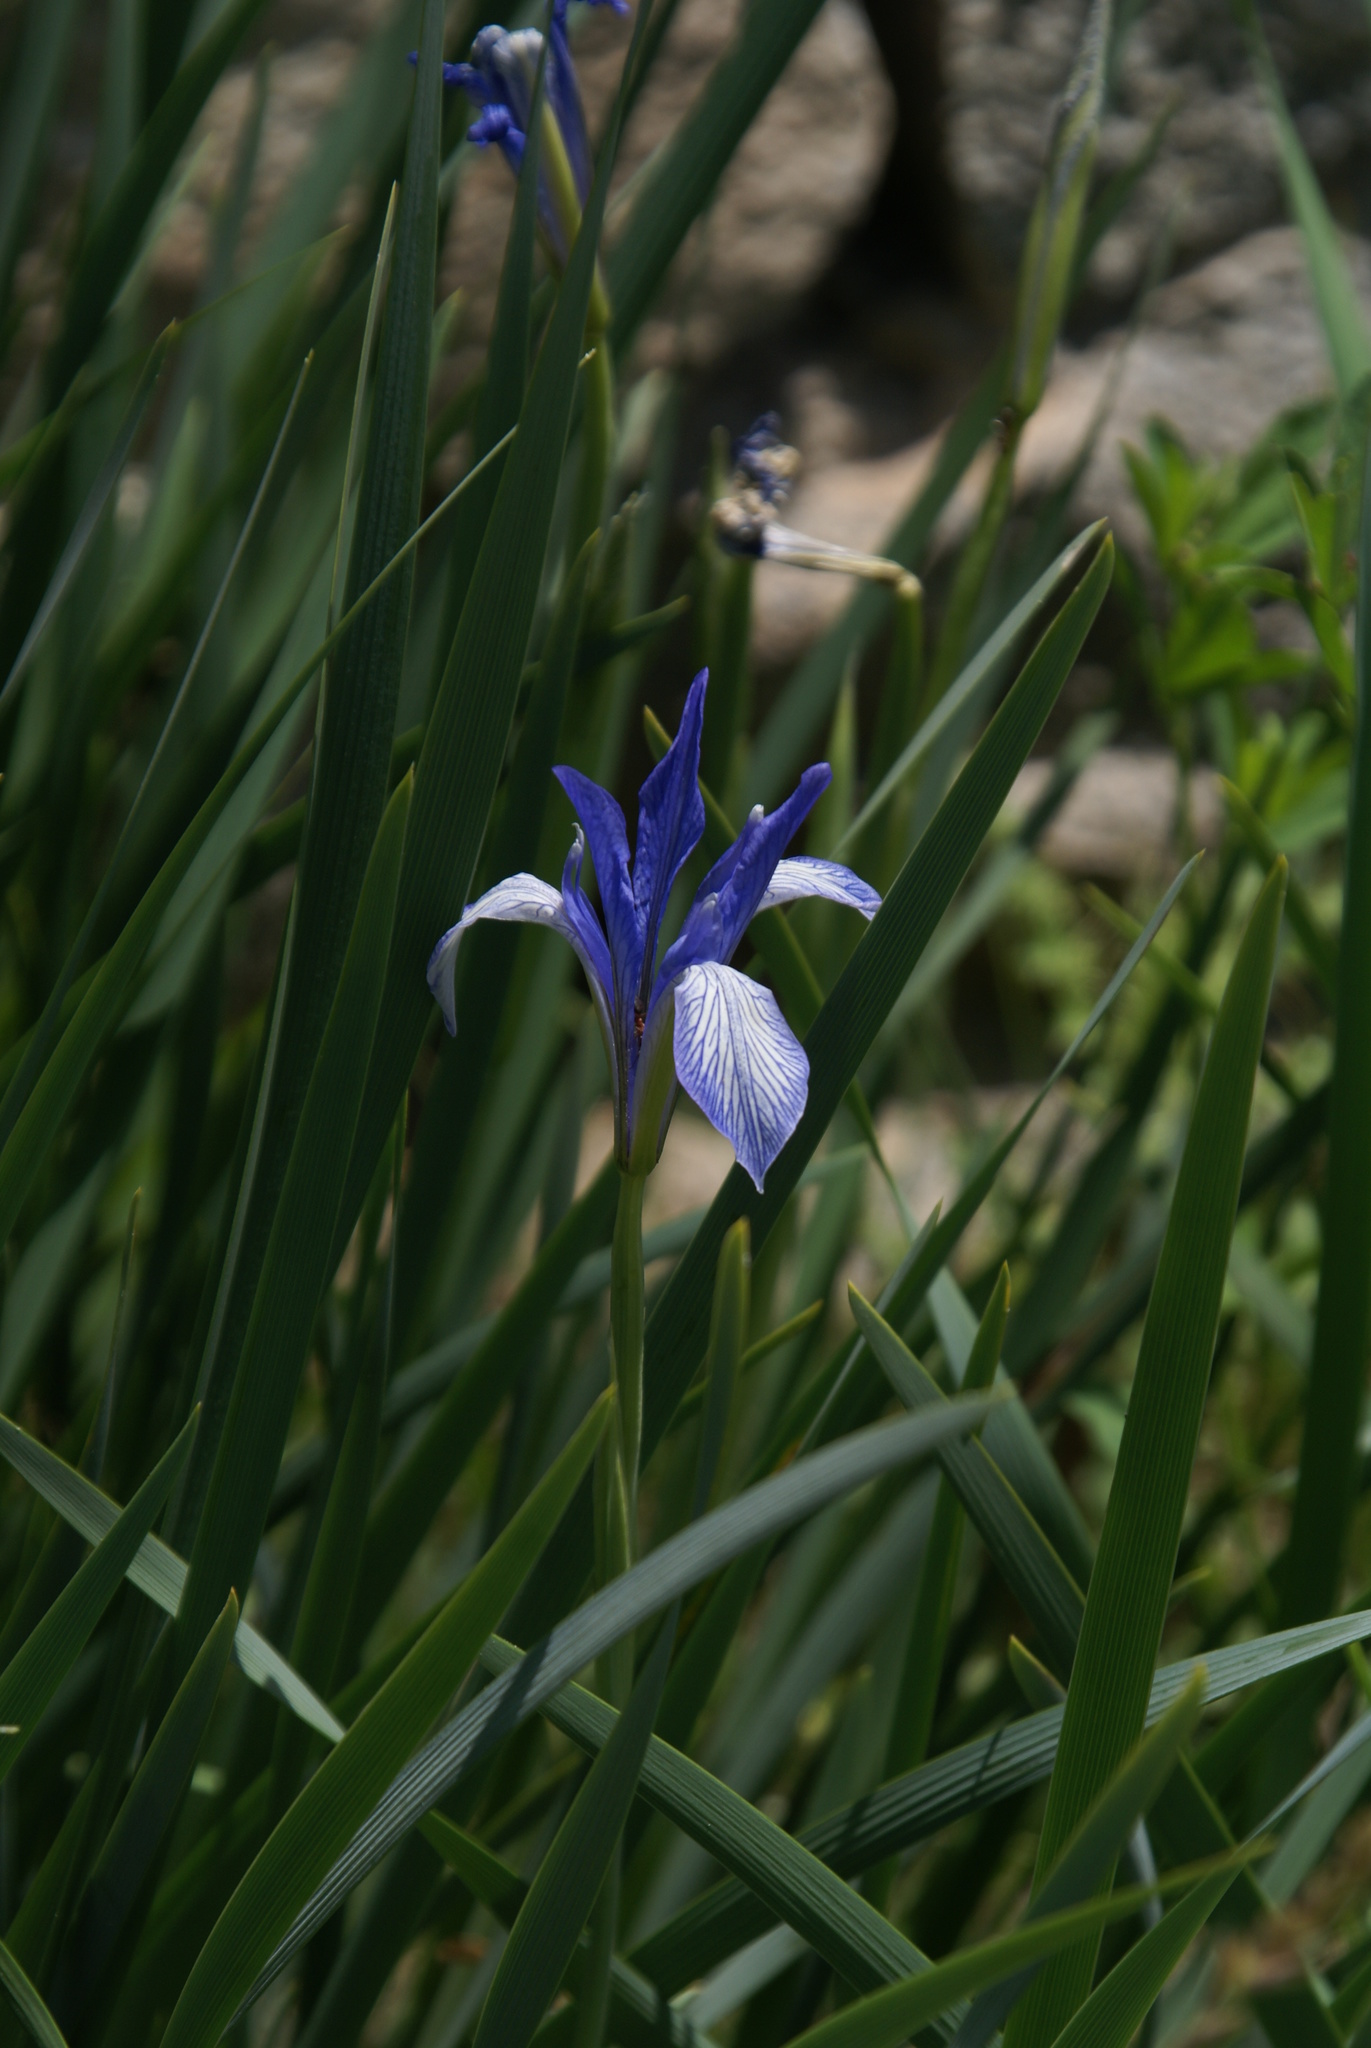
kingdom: Plantae
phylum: Tracheophyta
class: Liliopsida
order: Asparagales
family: Iridaceae
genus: Iris
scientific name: Iris lactea
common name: White-flower chinese iris
